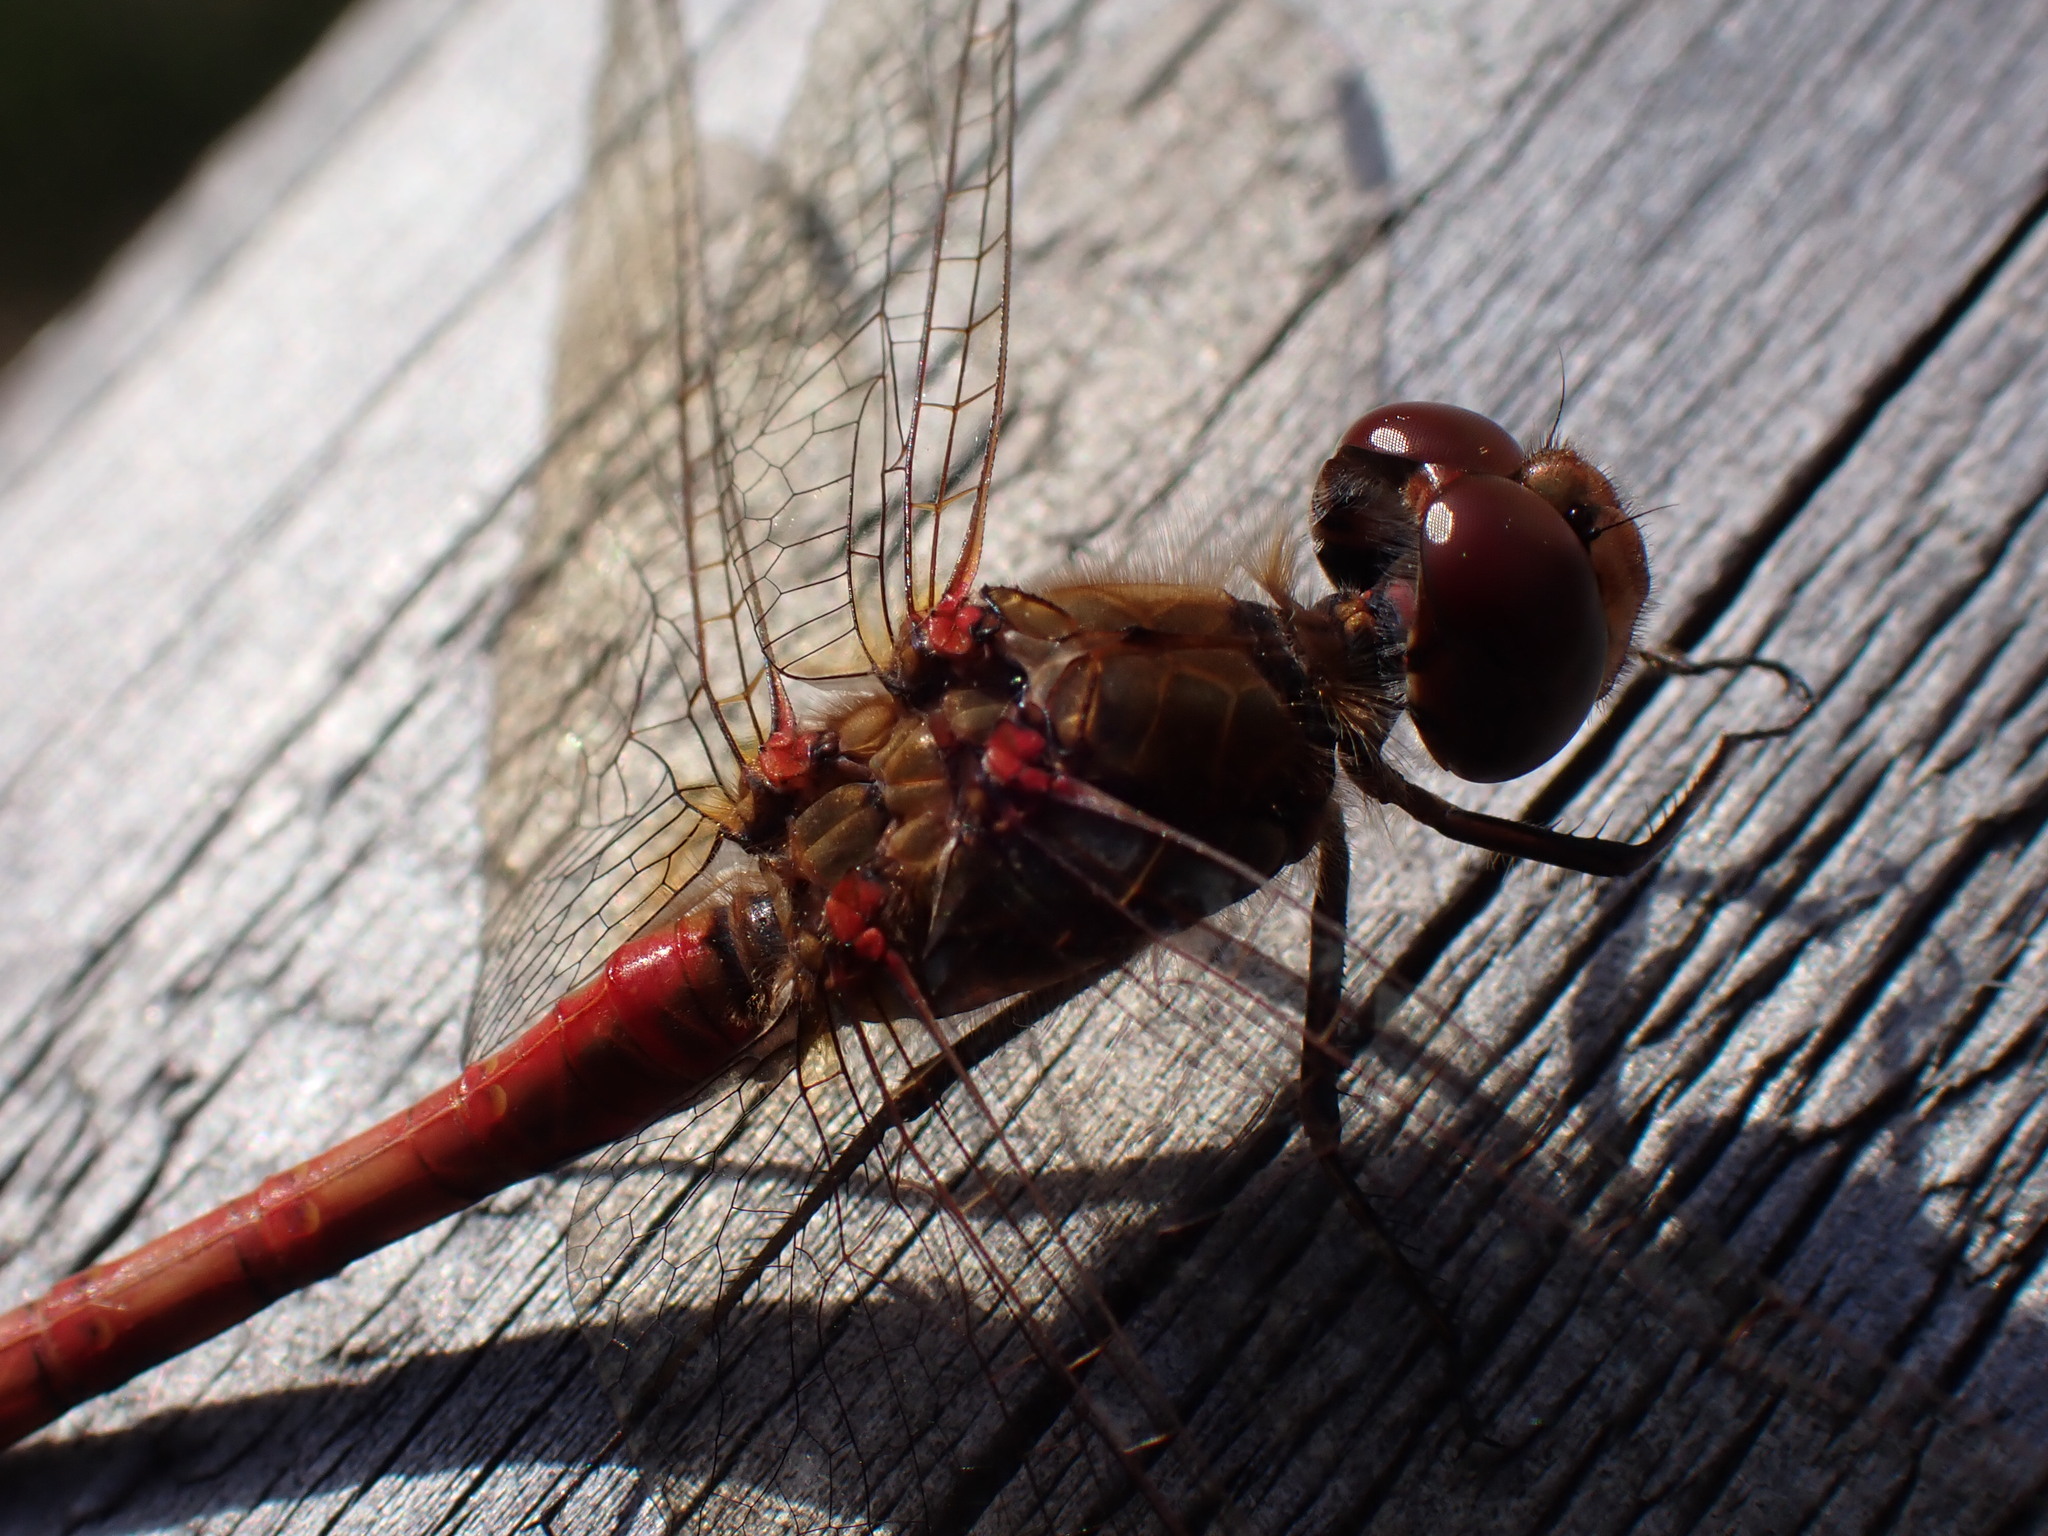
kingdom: Animalia
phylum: Arthropoda
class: Insecta
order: Odonata
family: Libellulidae
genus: Sympetrum
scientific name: Sympetrum striolatum
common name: Common darter
